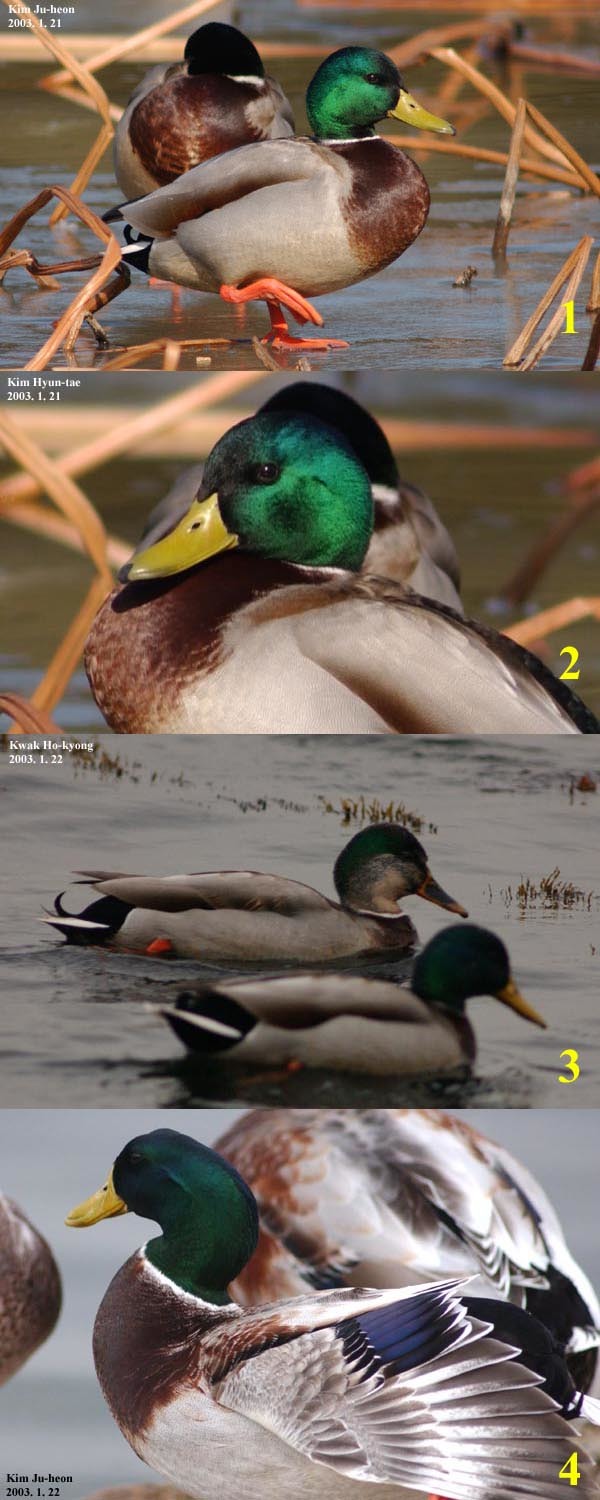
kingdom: Animalia
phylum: Chordata
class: Aves
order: Anseriformes
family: Anatidae
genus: Anas
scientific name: Anas platyrhynchos
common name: Mallard
